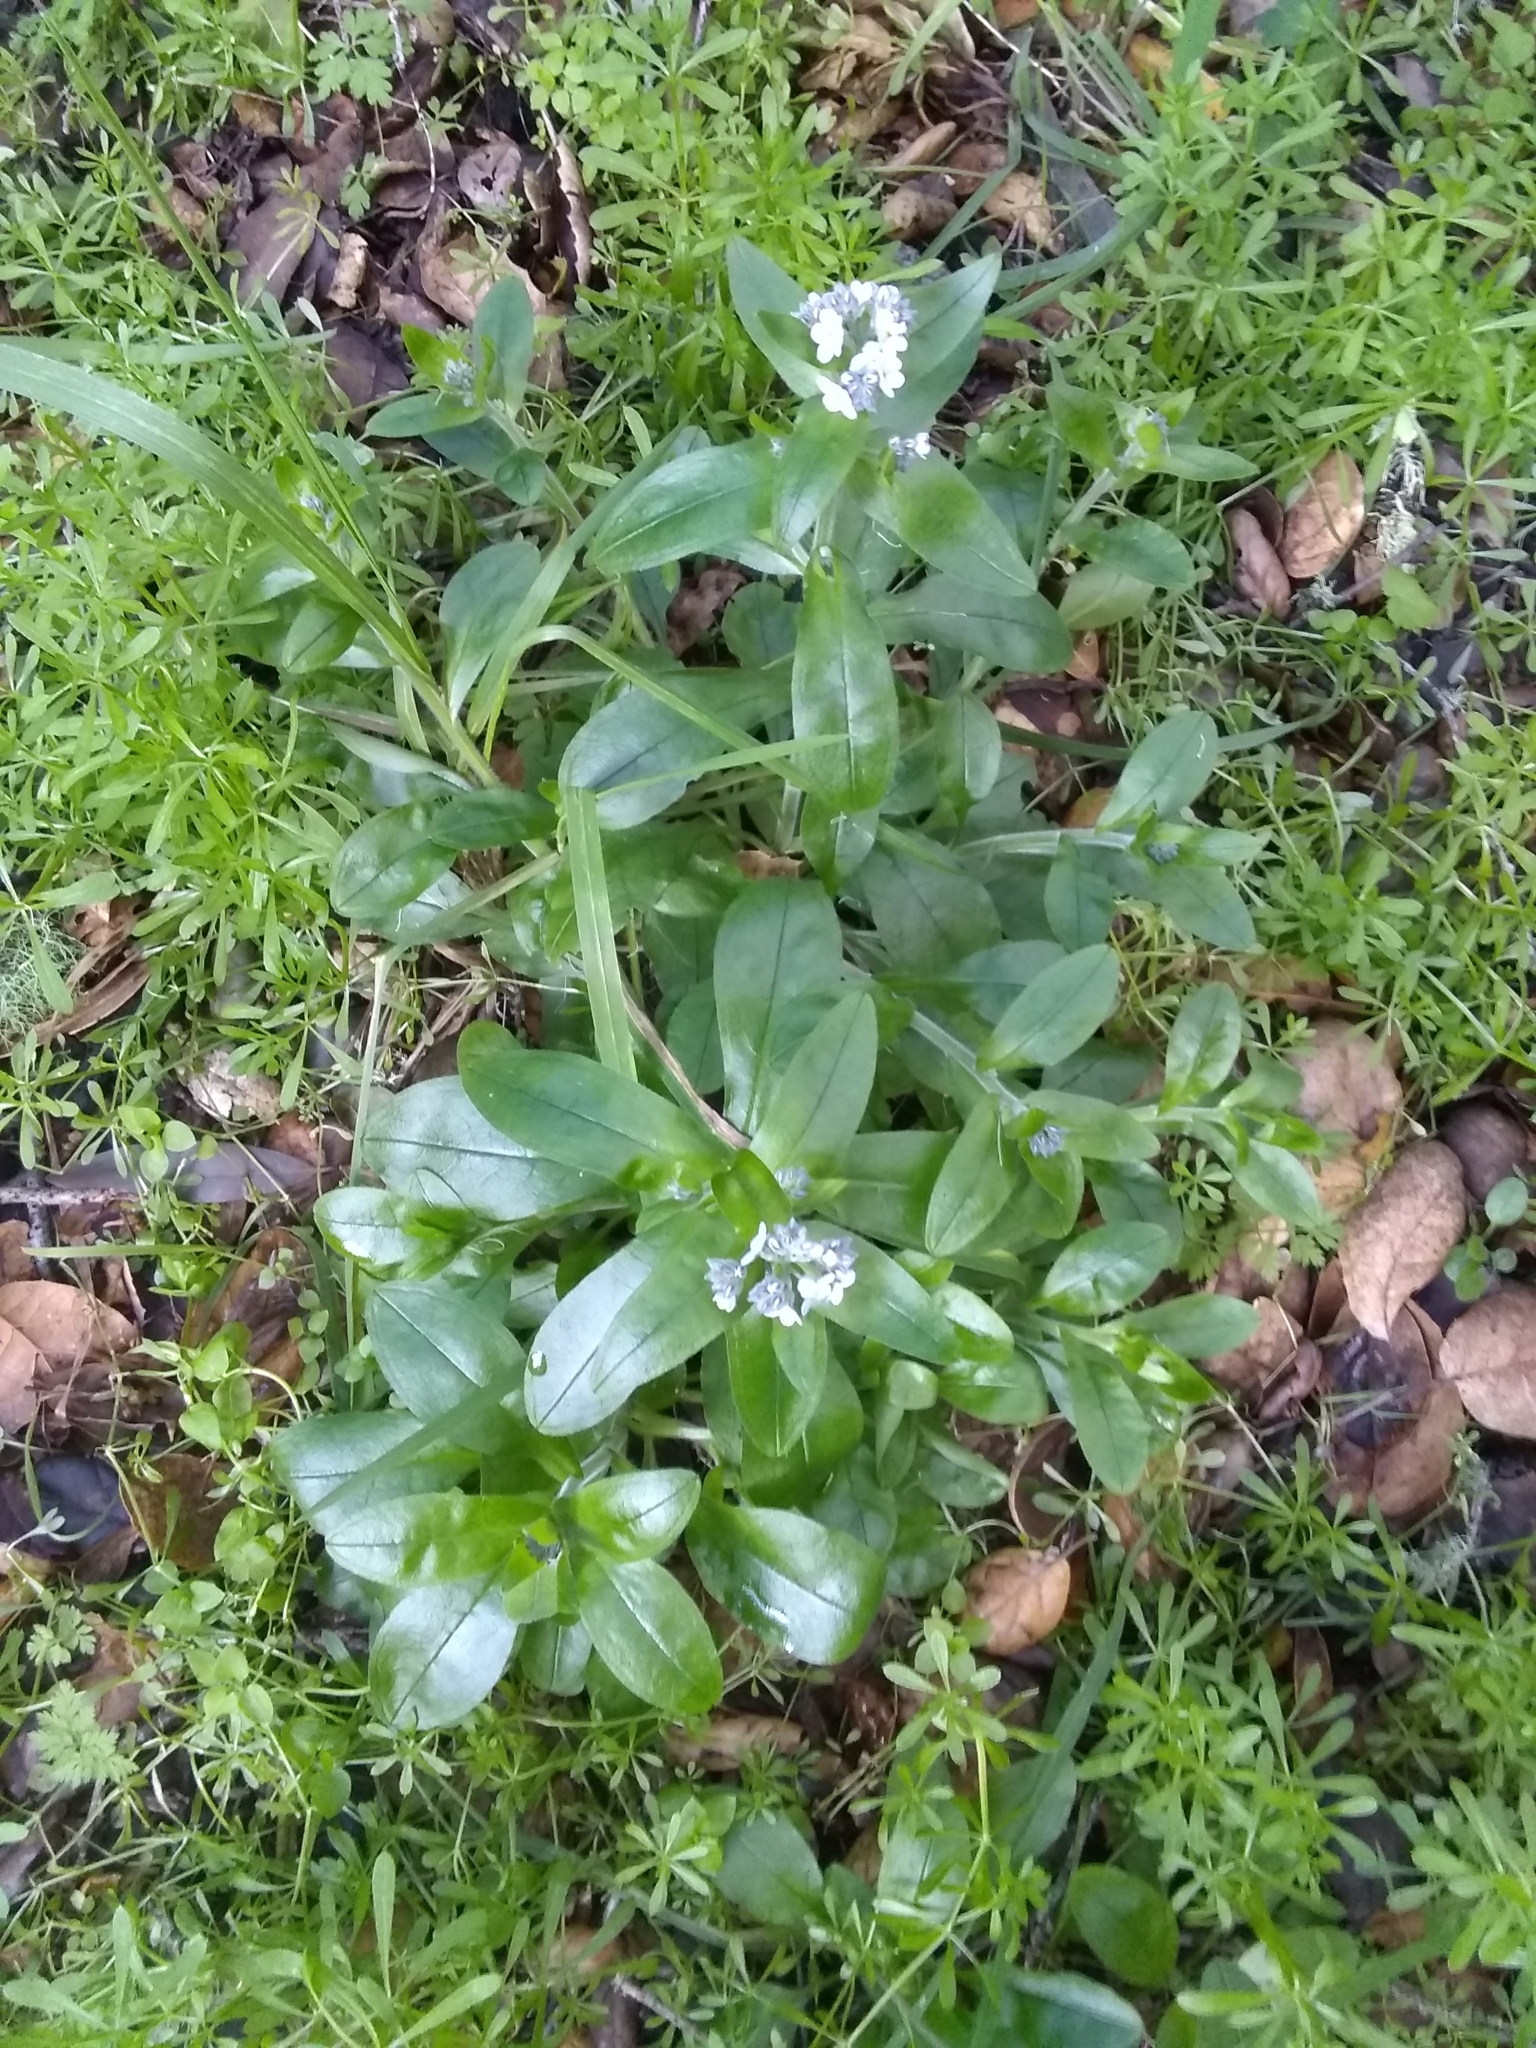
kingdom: Plantae
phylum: Tracheophyta
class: Magnoliopsida
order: Boraginales
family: Boraginaceae
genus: Myosotis
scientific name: Myosotis latifolia
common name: Broadleaf forget-me-not
